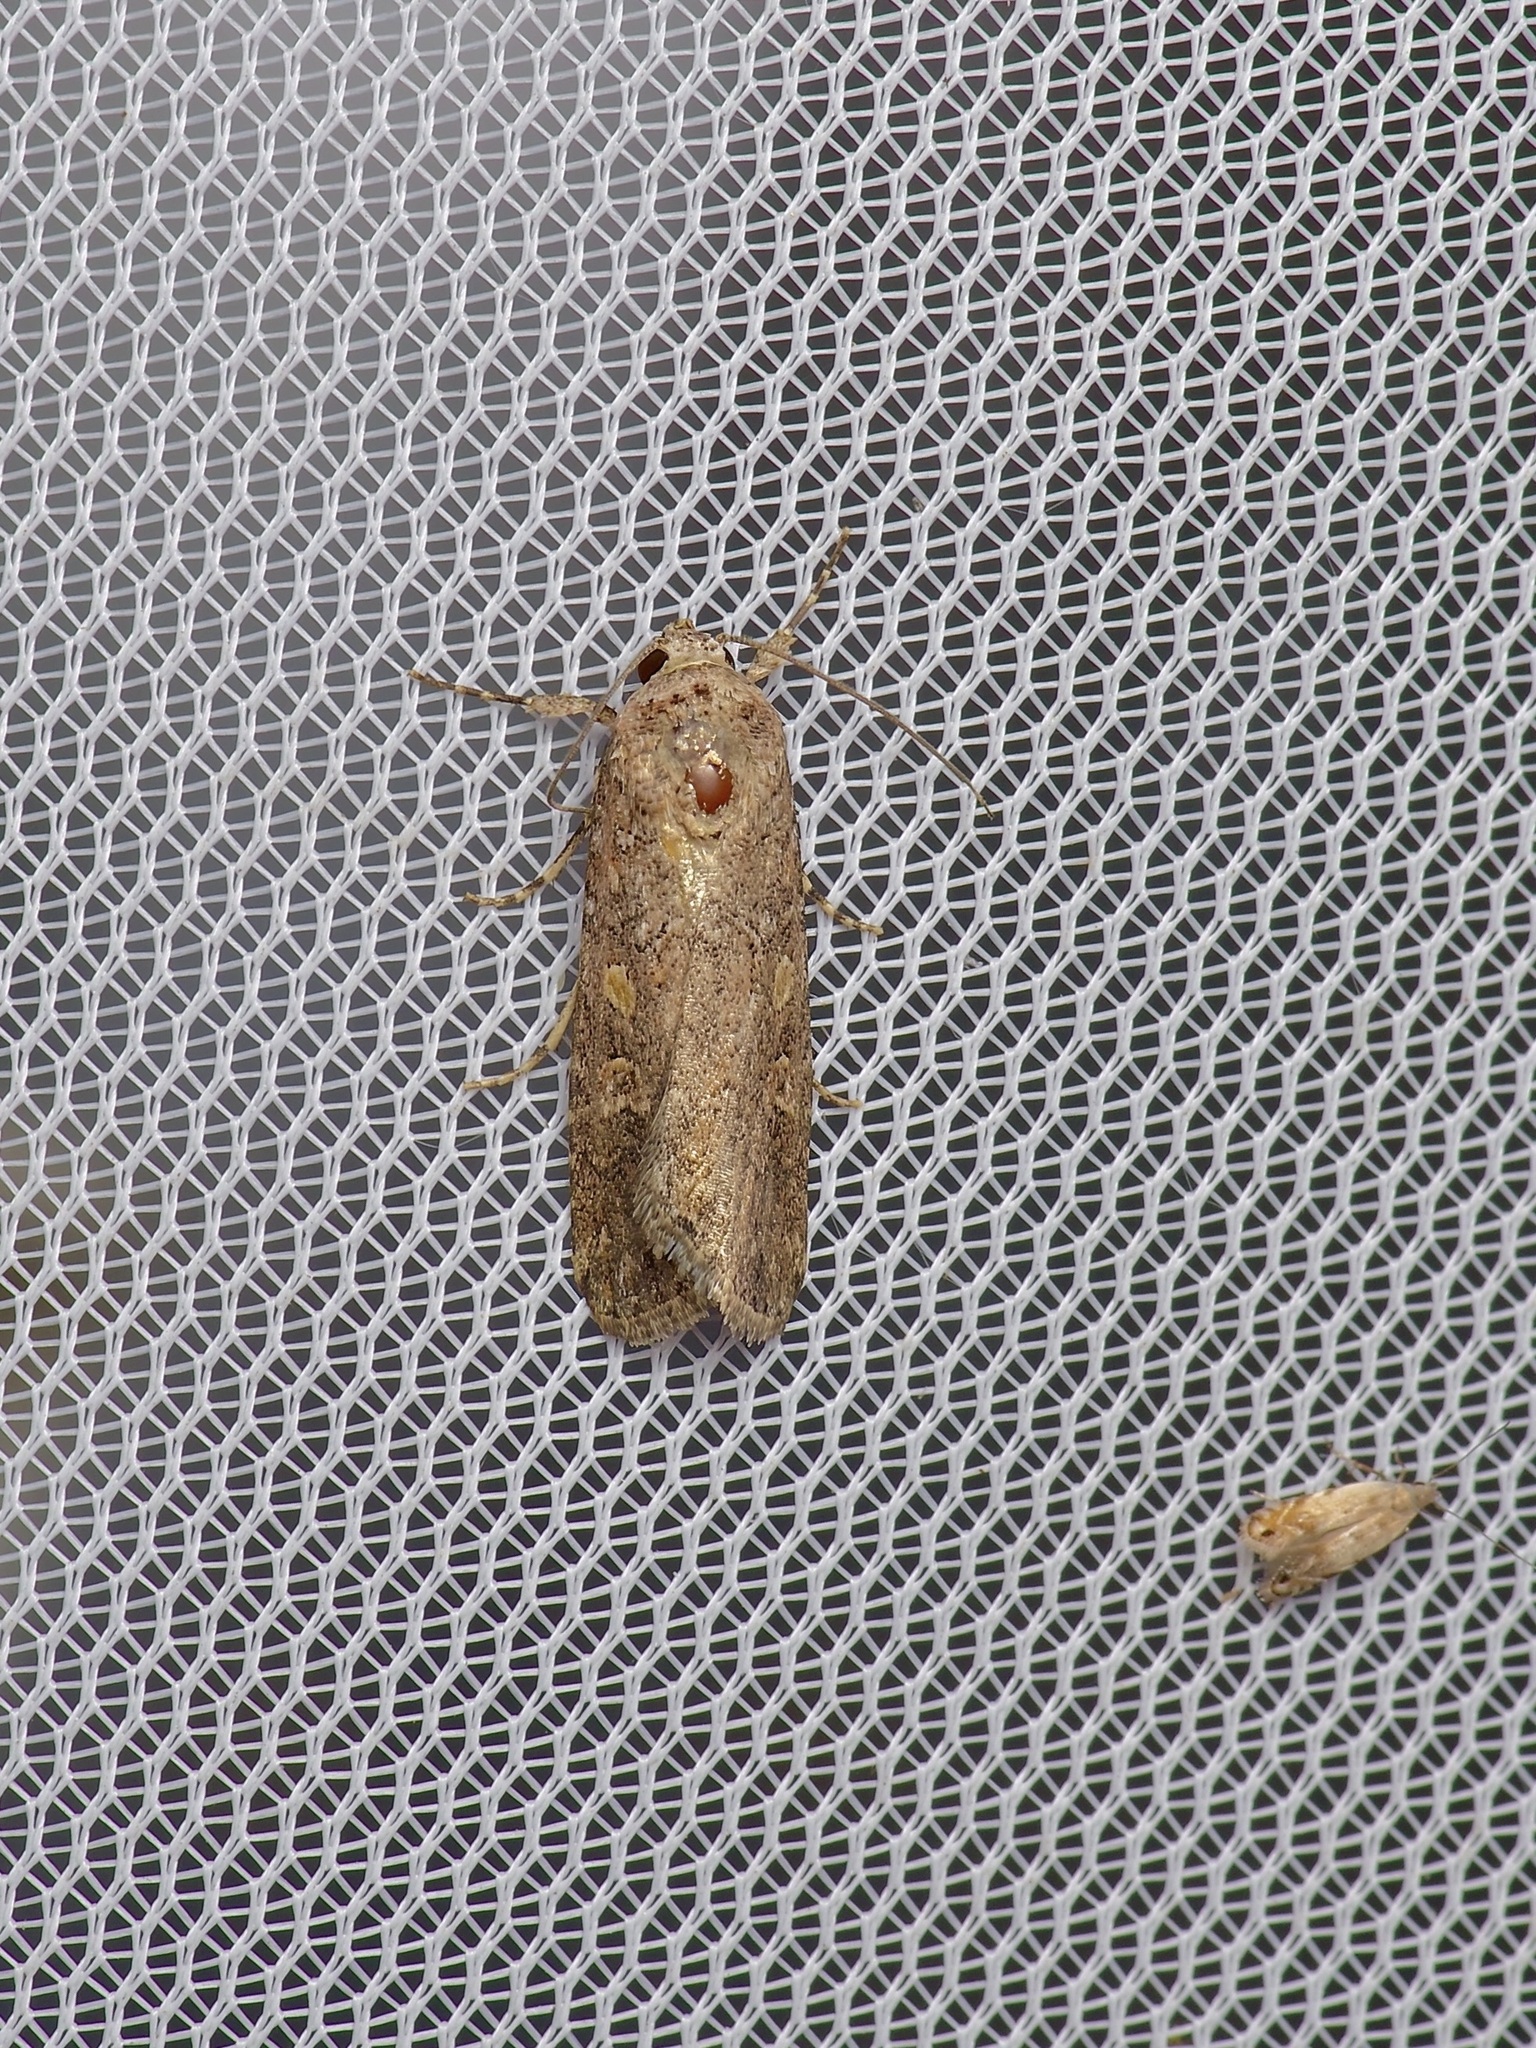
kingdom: Animalia
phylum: Arthropoda
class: Insecta
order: Lepidoptera
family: Noctuidae
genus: Spodoptera
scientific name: Spodoptera exigua
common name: Beet armyworm
